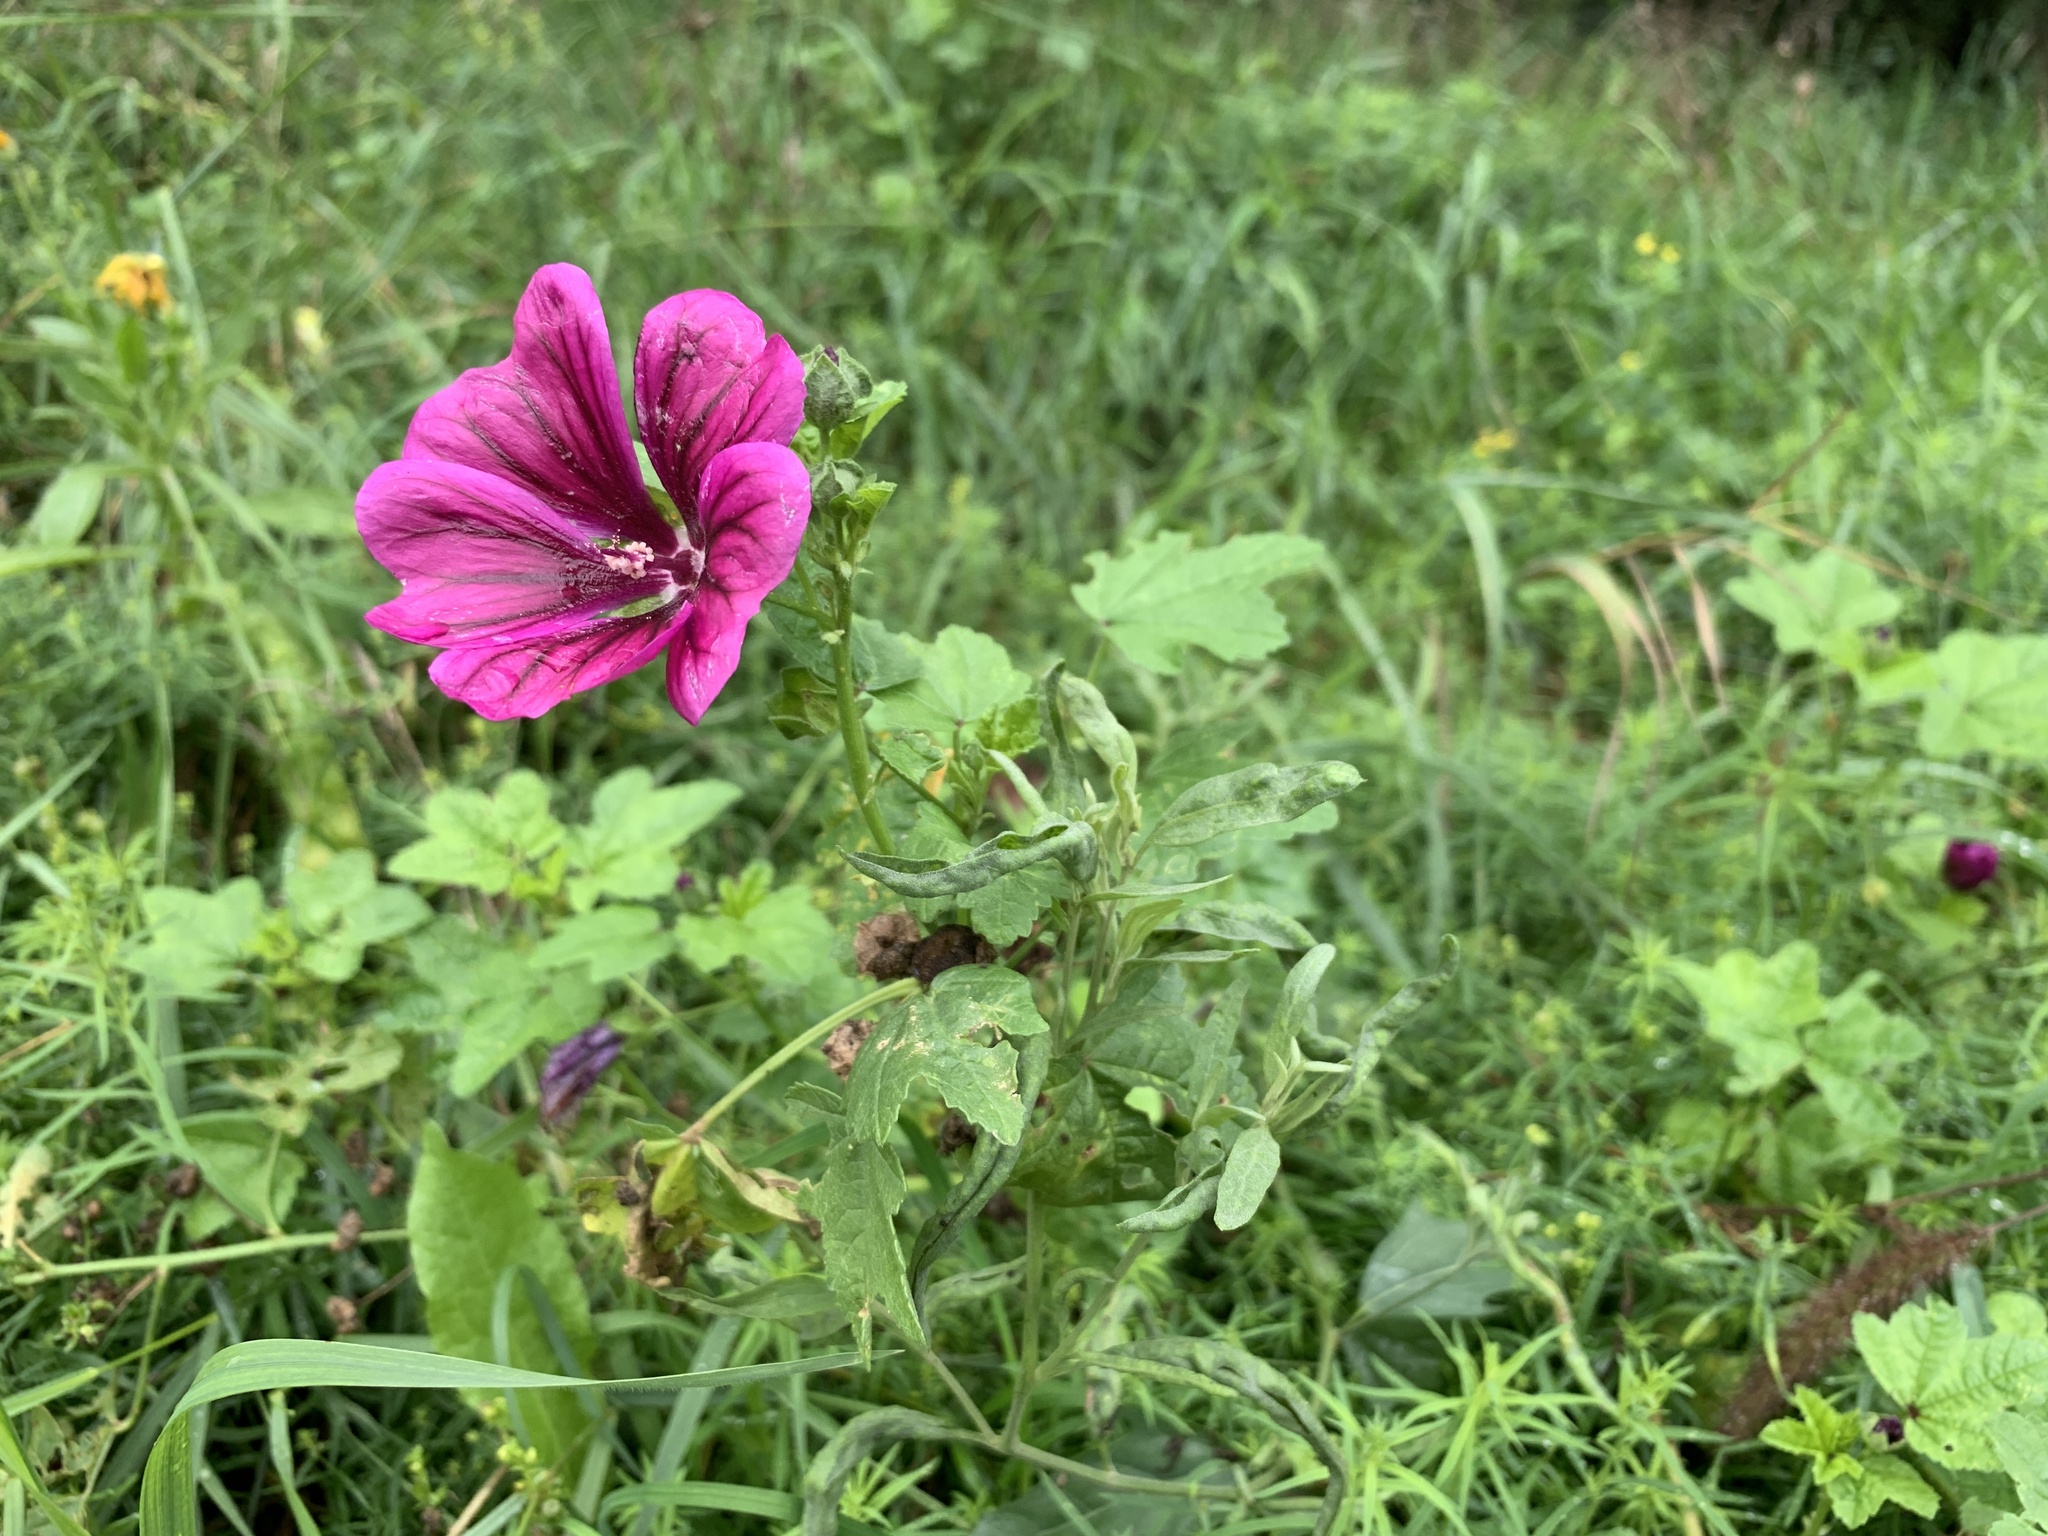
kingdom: Plantae
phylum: Tracheophyta
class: Magnoliopsida
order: Malvales
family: Malvaceae
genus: Malva
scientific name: Malva sylvestris
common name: Common mallow
